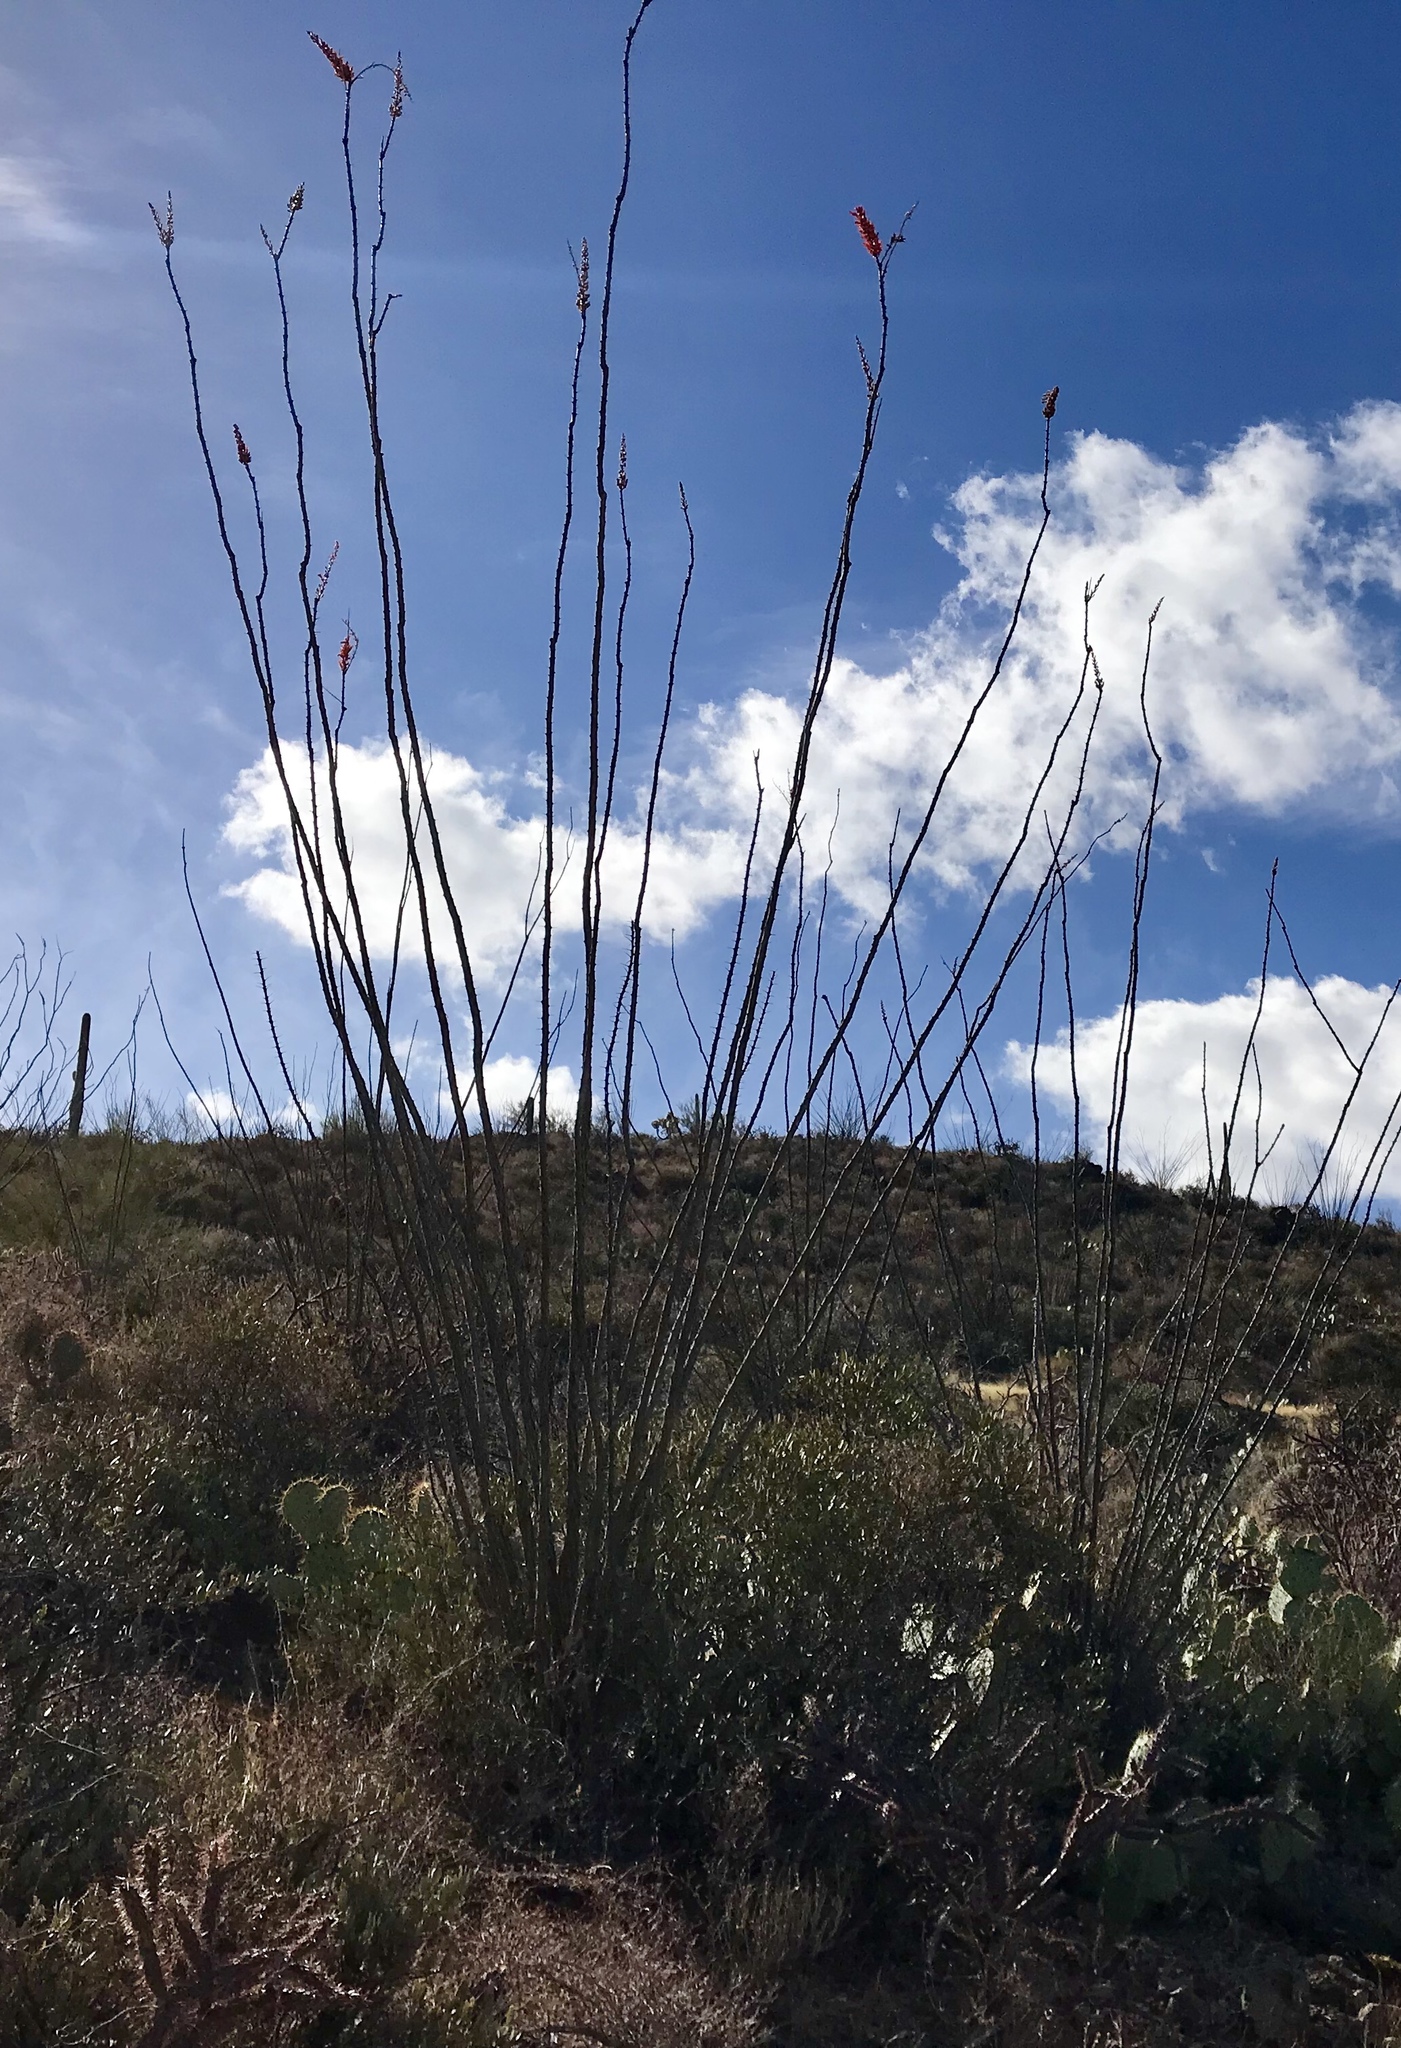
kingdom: Plantae
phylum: Tracheophyta
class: Magnoliopsida
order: Ericales
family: Fouquieriaceae
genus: Fouquieria
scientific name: Fouquieria splendens
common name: Vine-cactus
